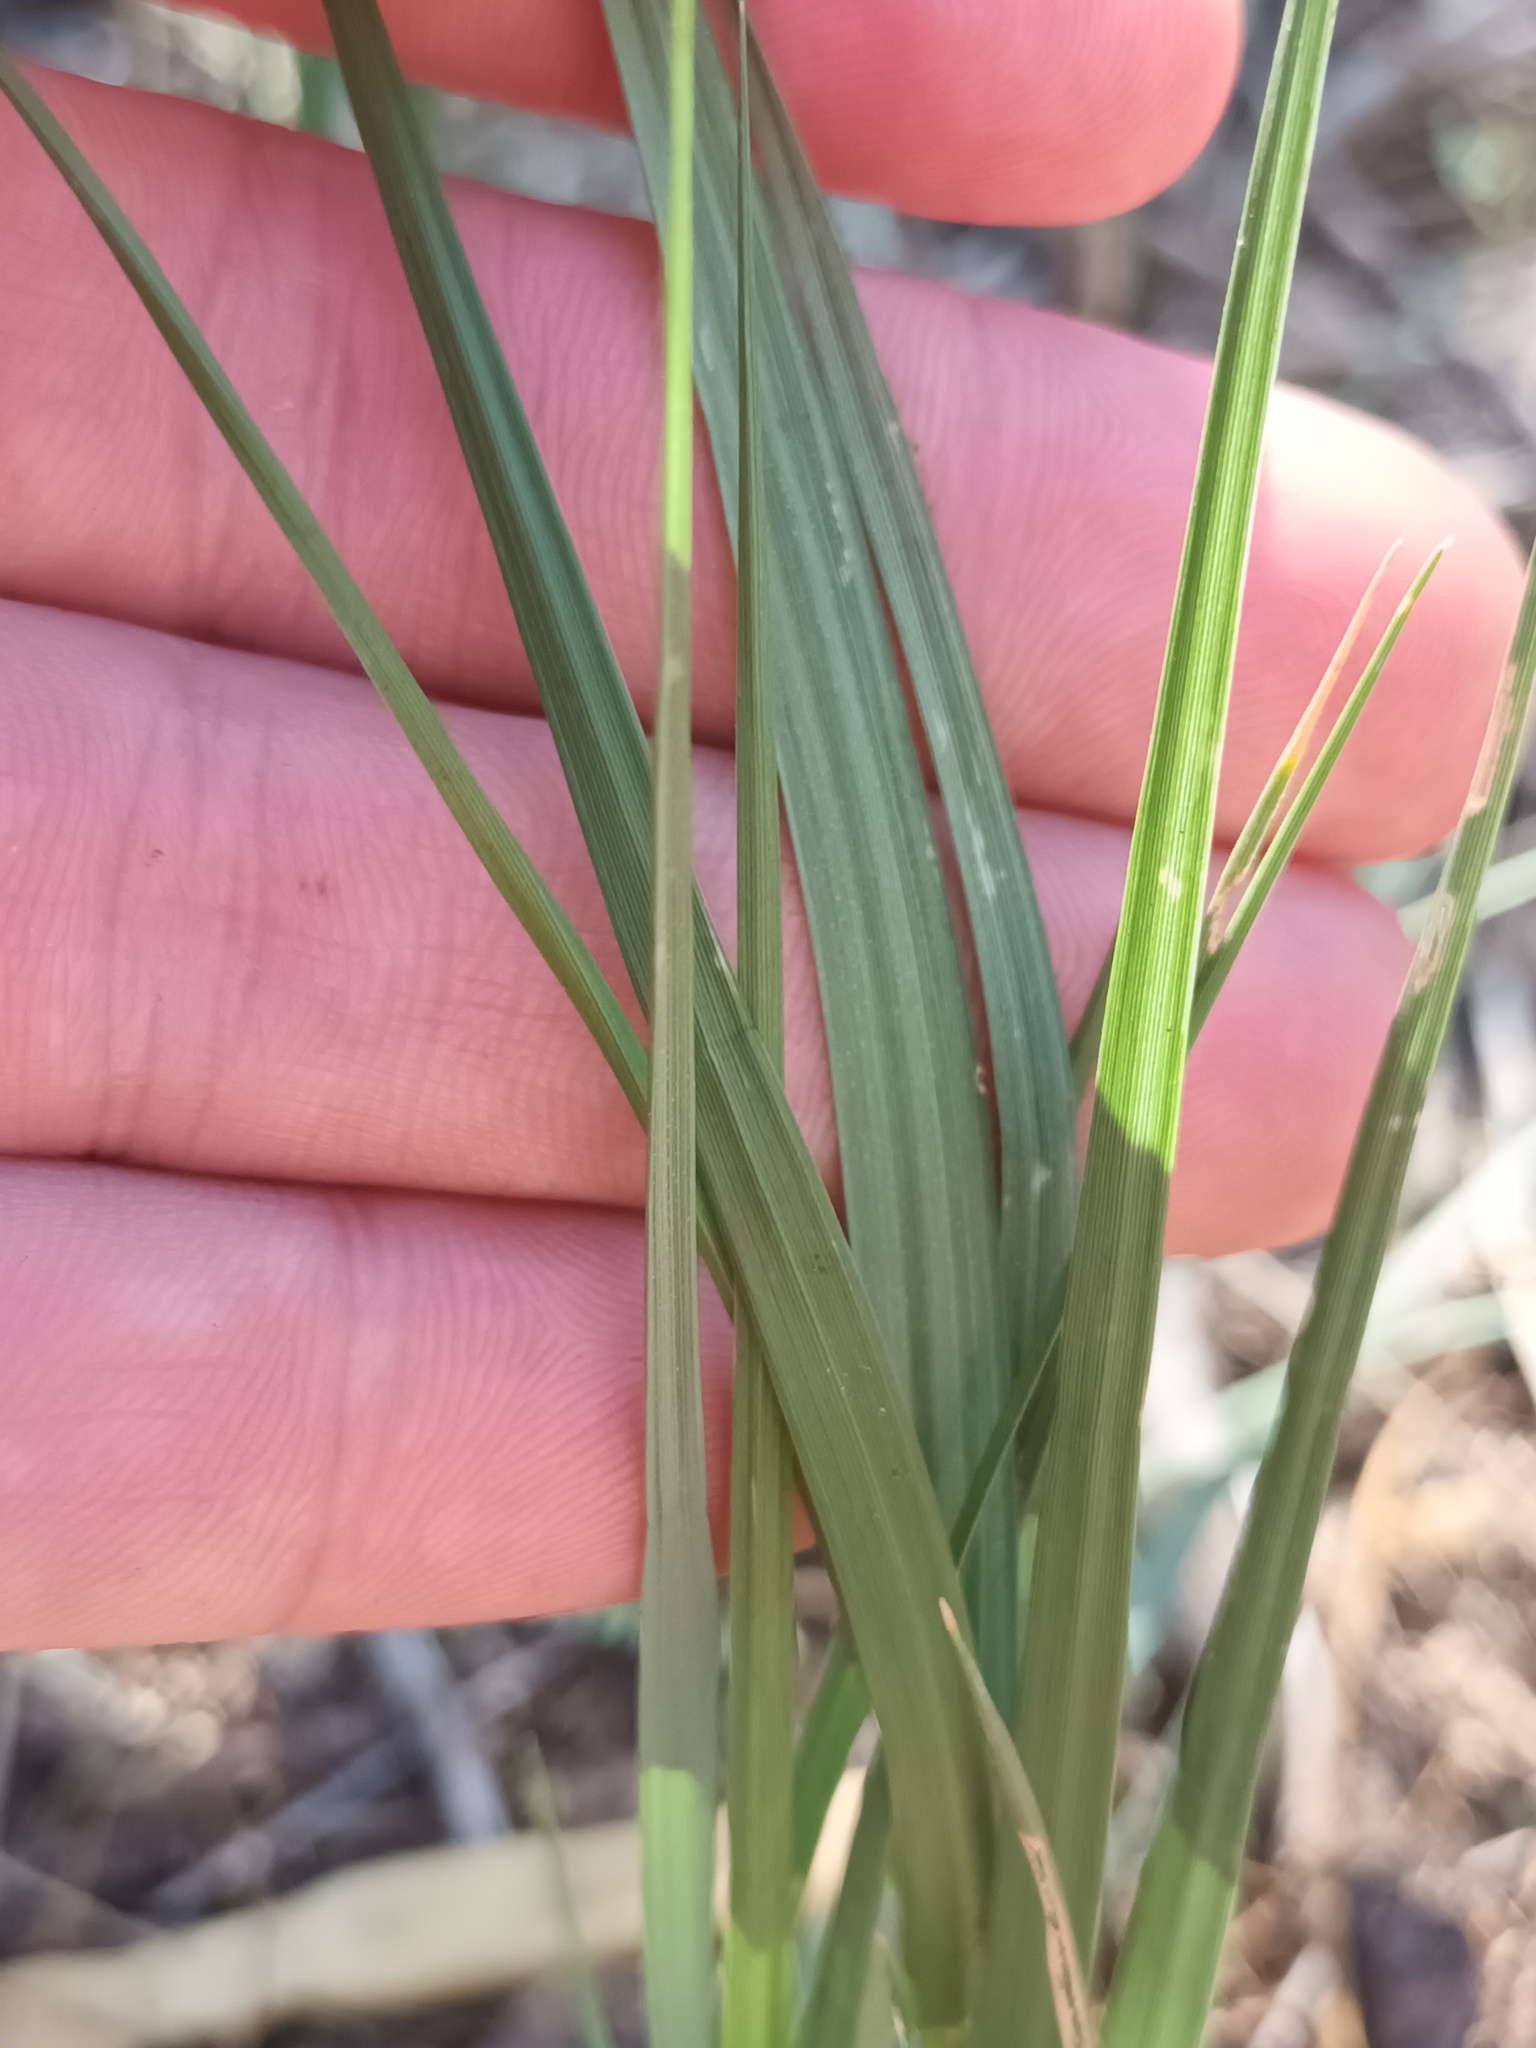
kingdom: Plantae
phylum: Tracheophyta
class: Liliopsida
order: Poales
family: Poaceae
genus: Sporobolus
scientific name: Sporobolus virginicus
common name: Beach dropseed
